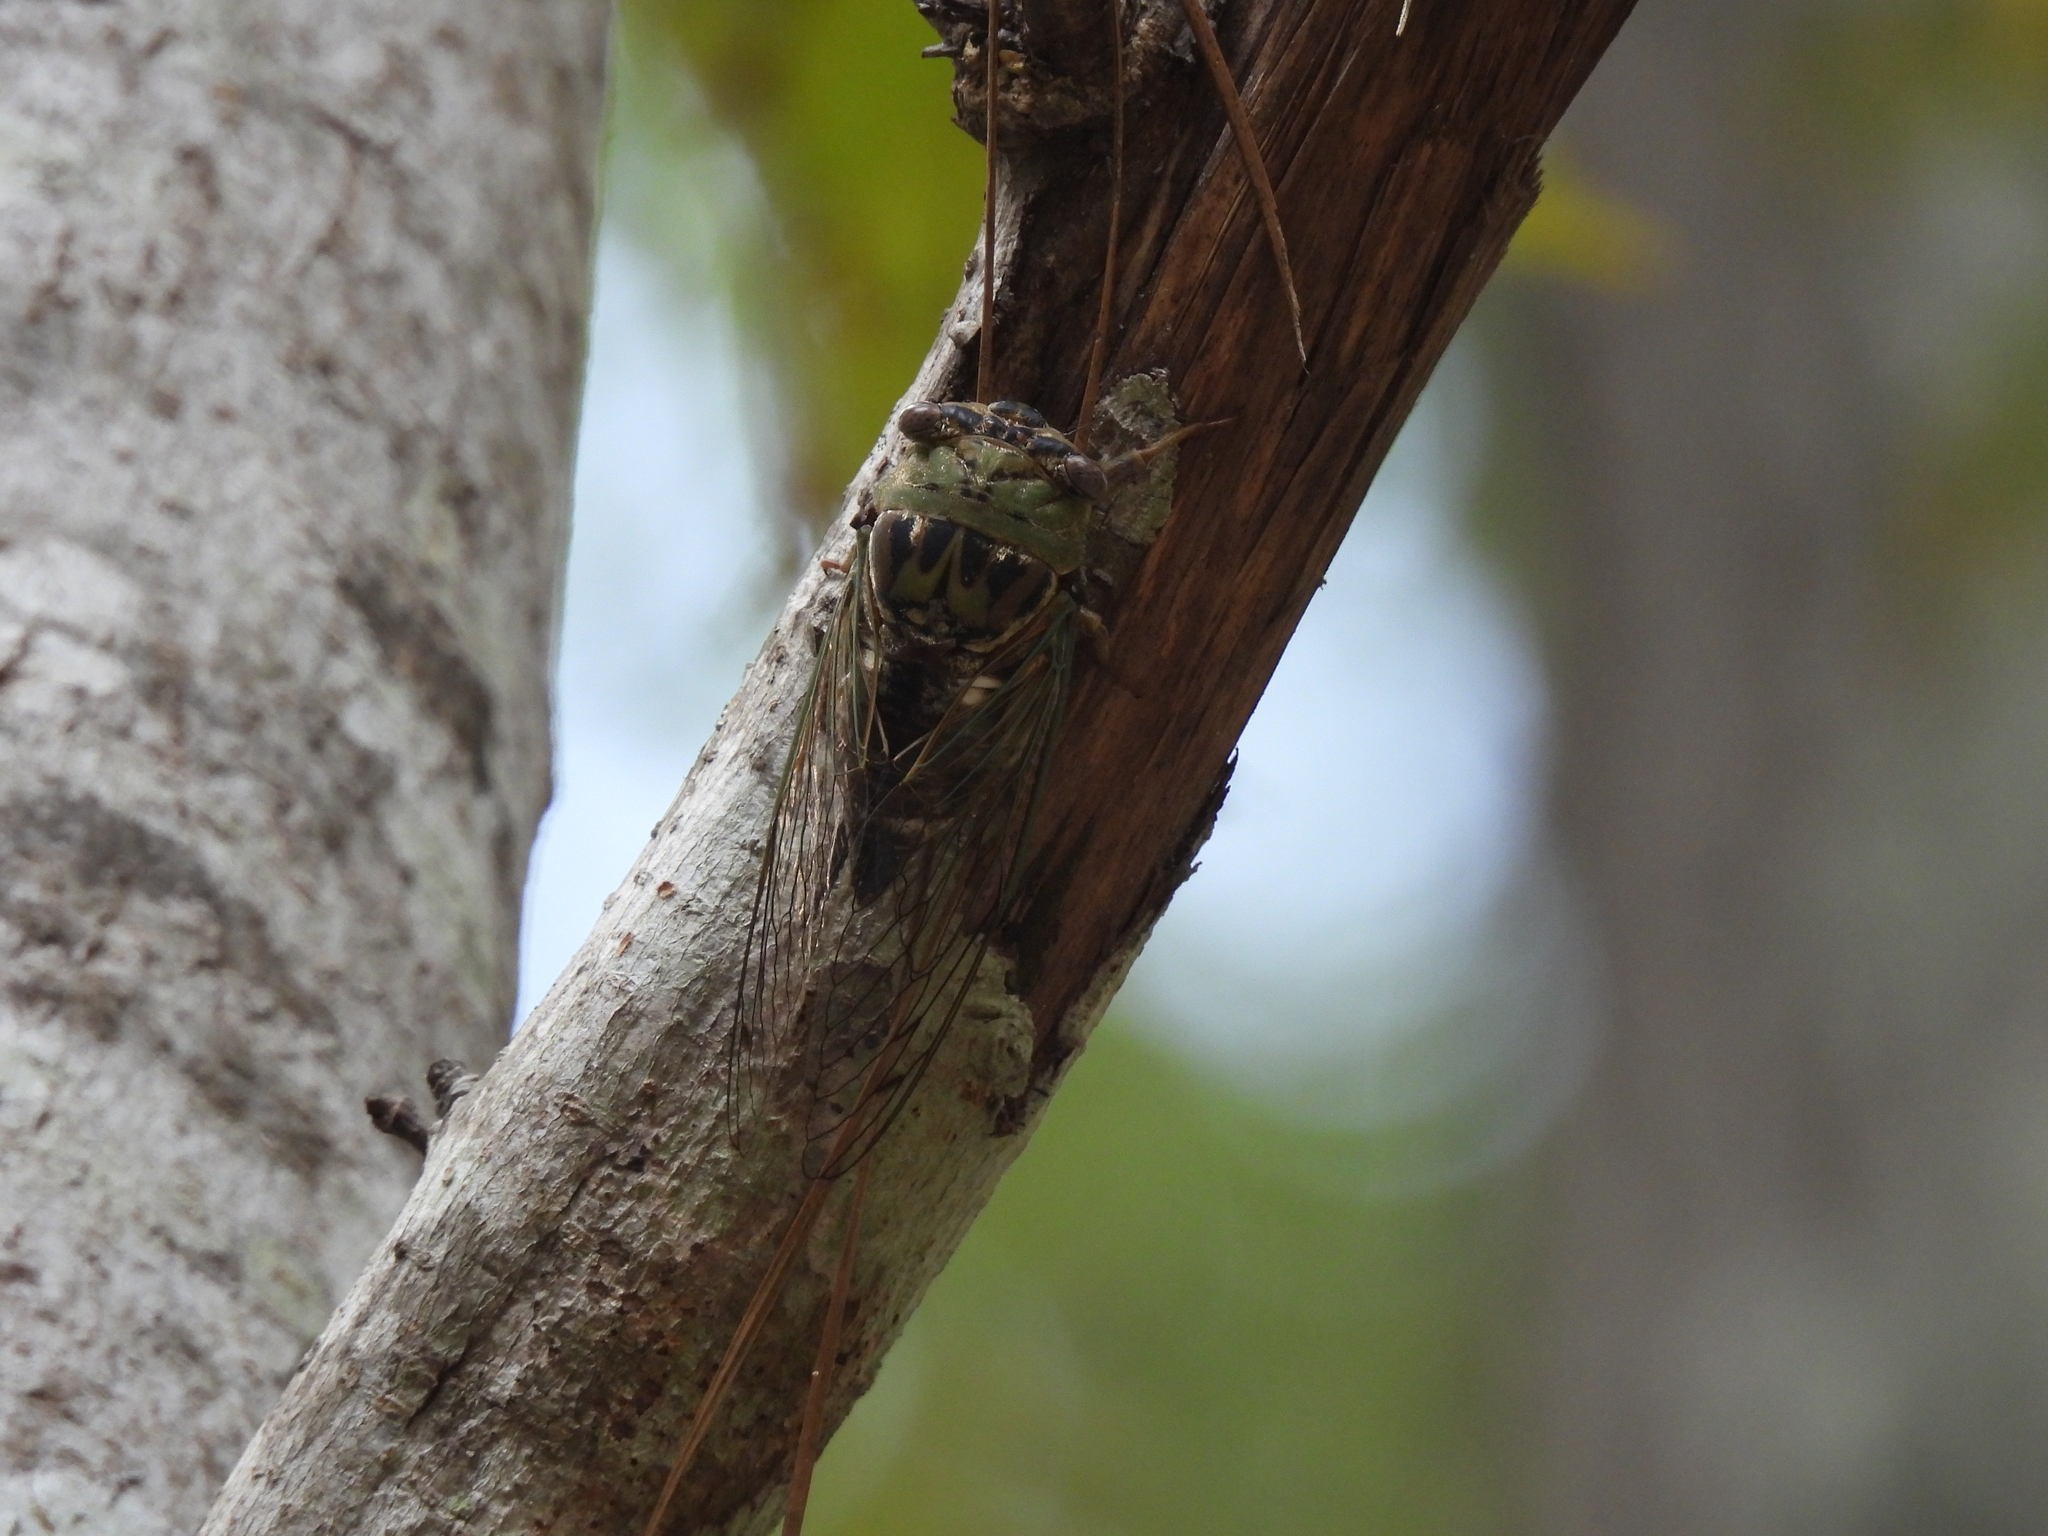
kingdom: Animalia
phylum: Arthropoda
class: Insecta
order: Hemiptera
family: Cicadidae
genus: Megatibicen
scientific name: Megatibicen resh
